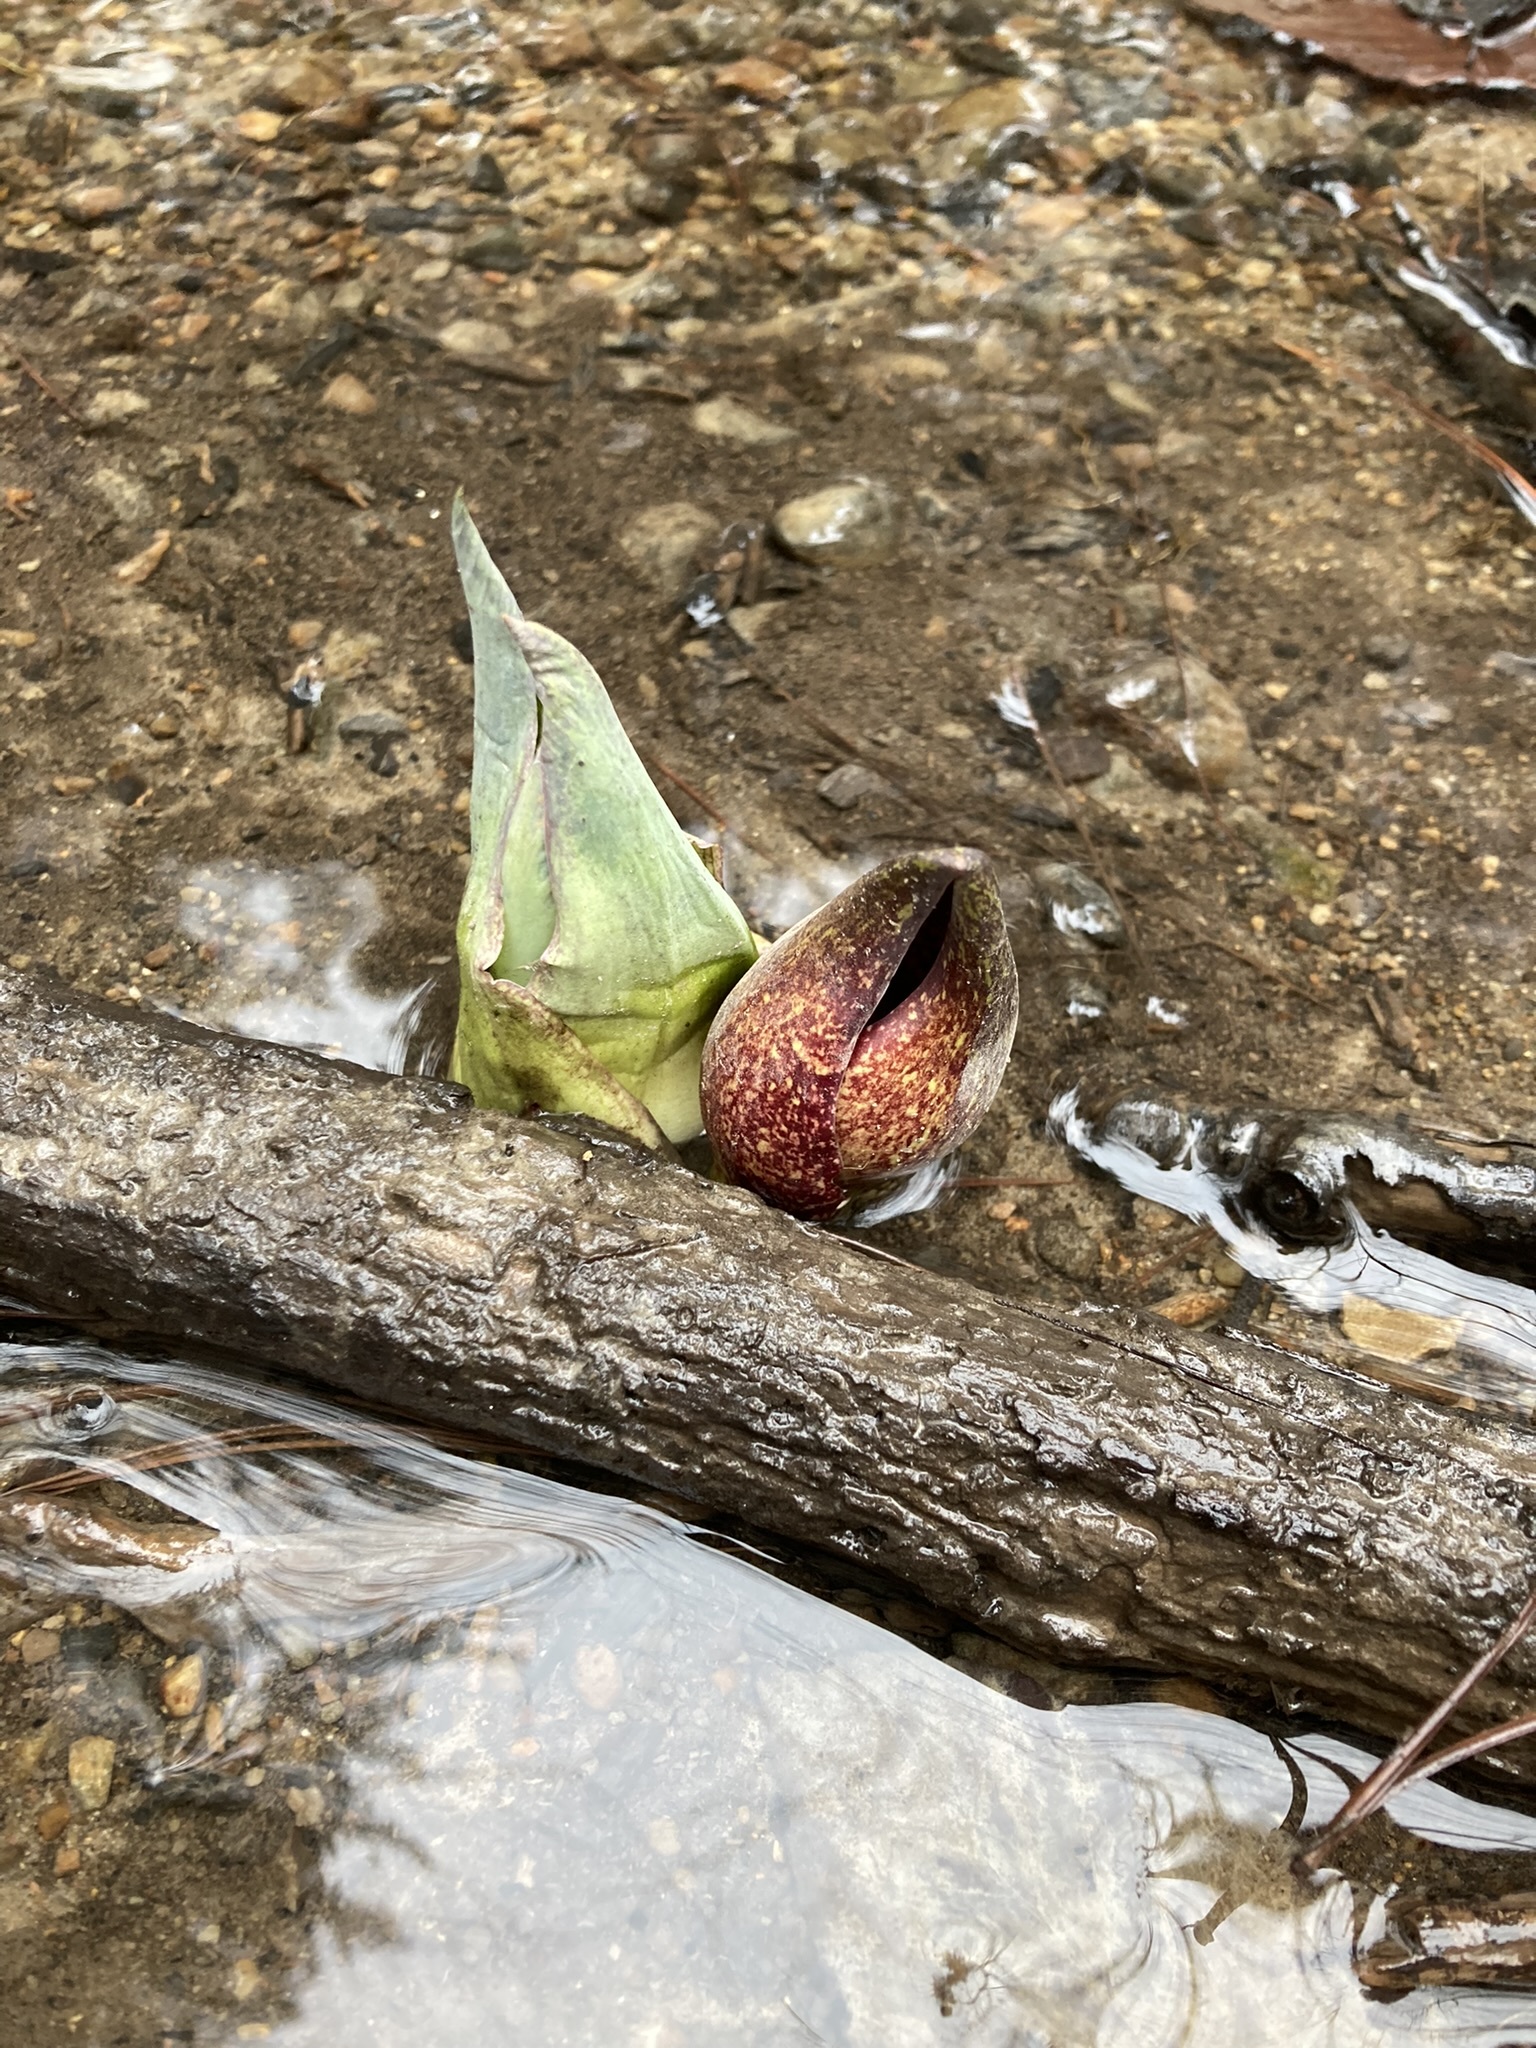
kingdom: Plantae
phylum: Tracheophyta
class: Liliopsida
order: Alismatales
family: Araceae
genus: Symplocarpus
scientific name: Symplocarpus foetidus
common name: Eastern skunk cabbage
